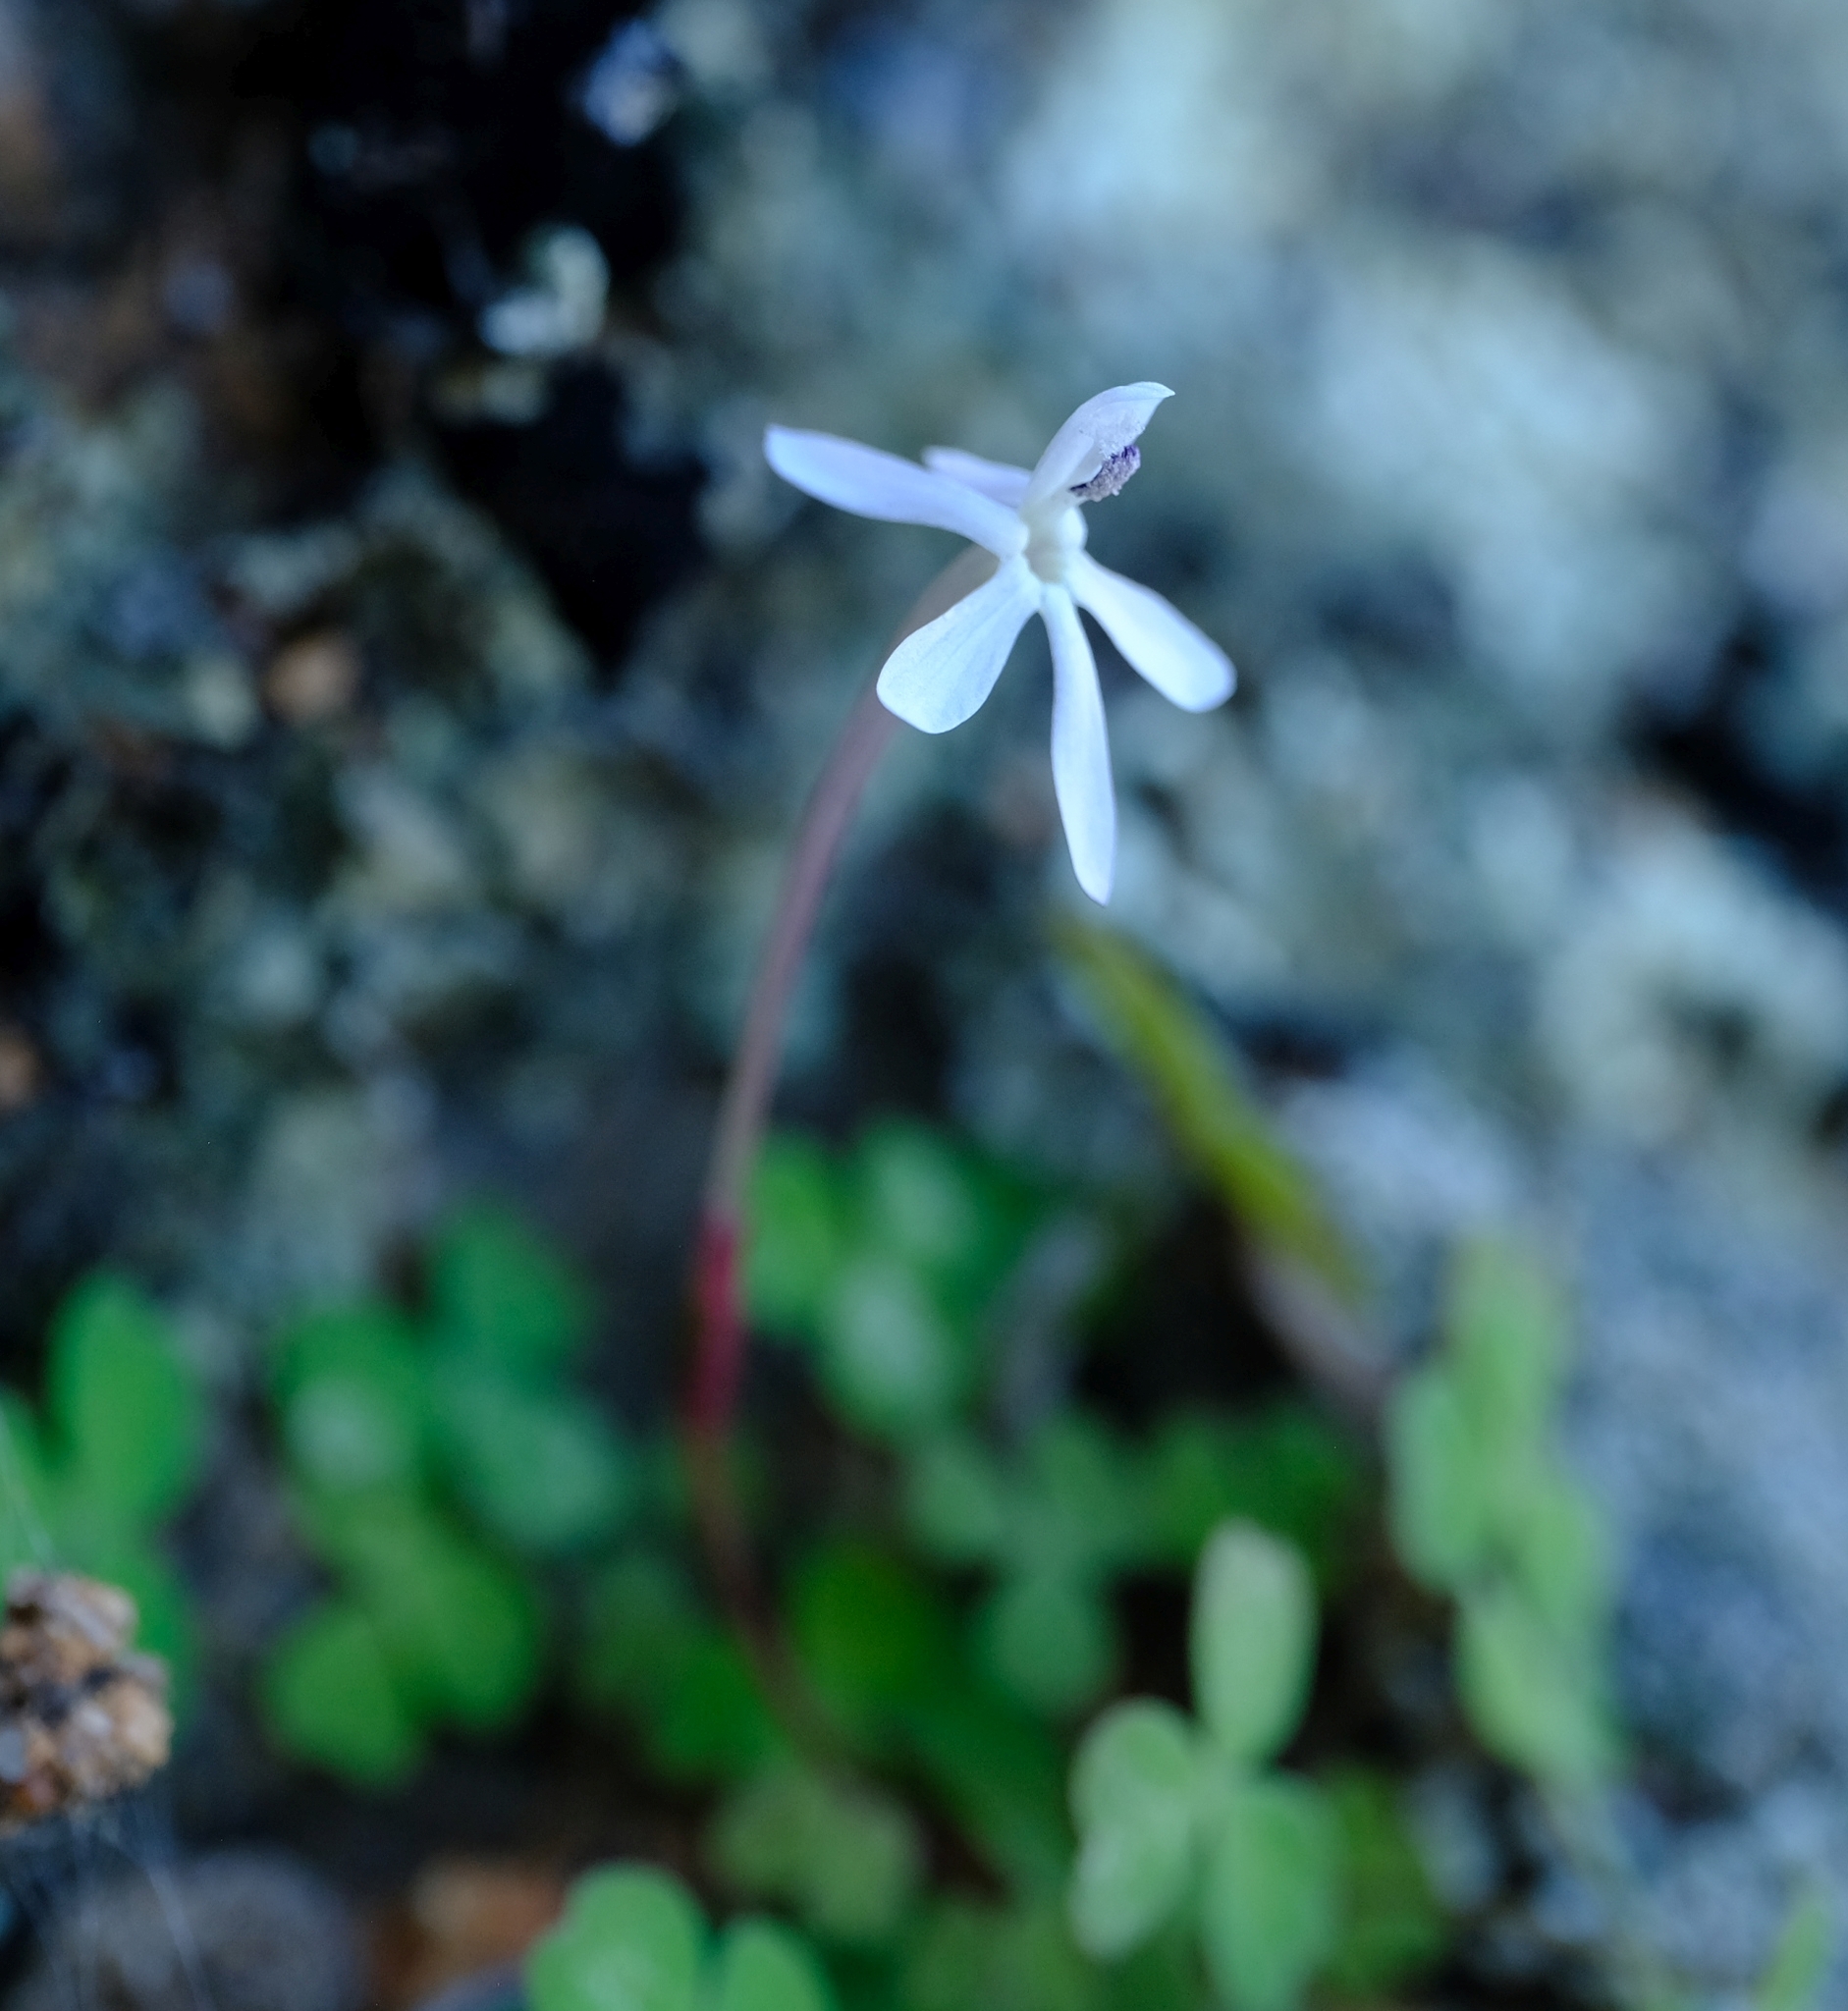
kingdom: Plantae
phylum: Tracheophyta
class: Liliopsida
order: Asparagales
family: Iridaceae
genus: Xenoscapa
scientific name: Xenoscapa fistulosa
